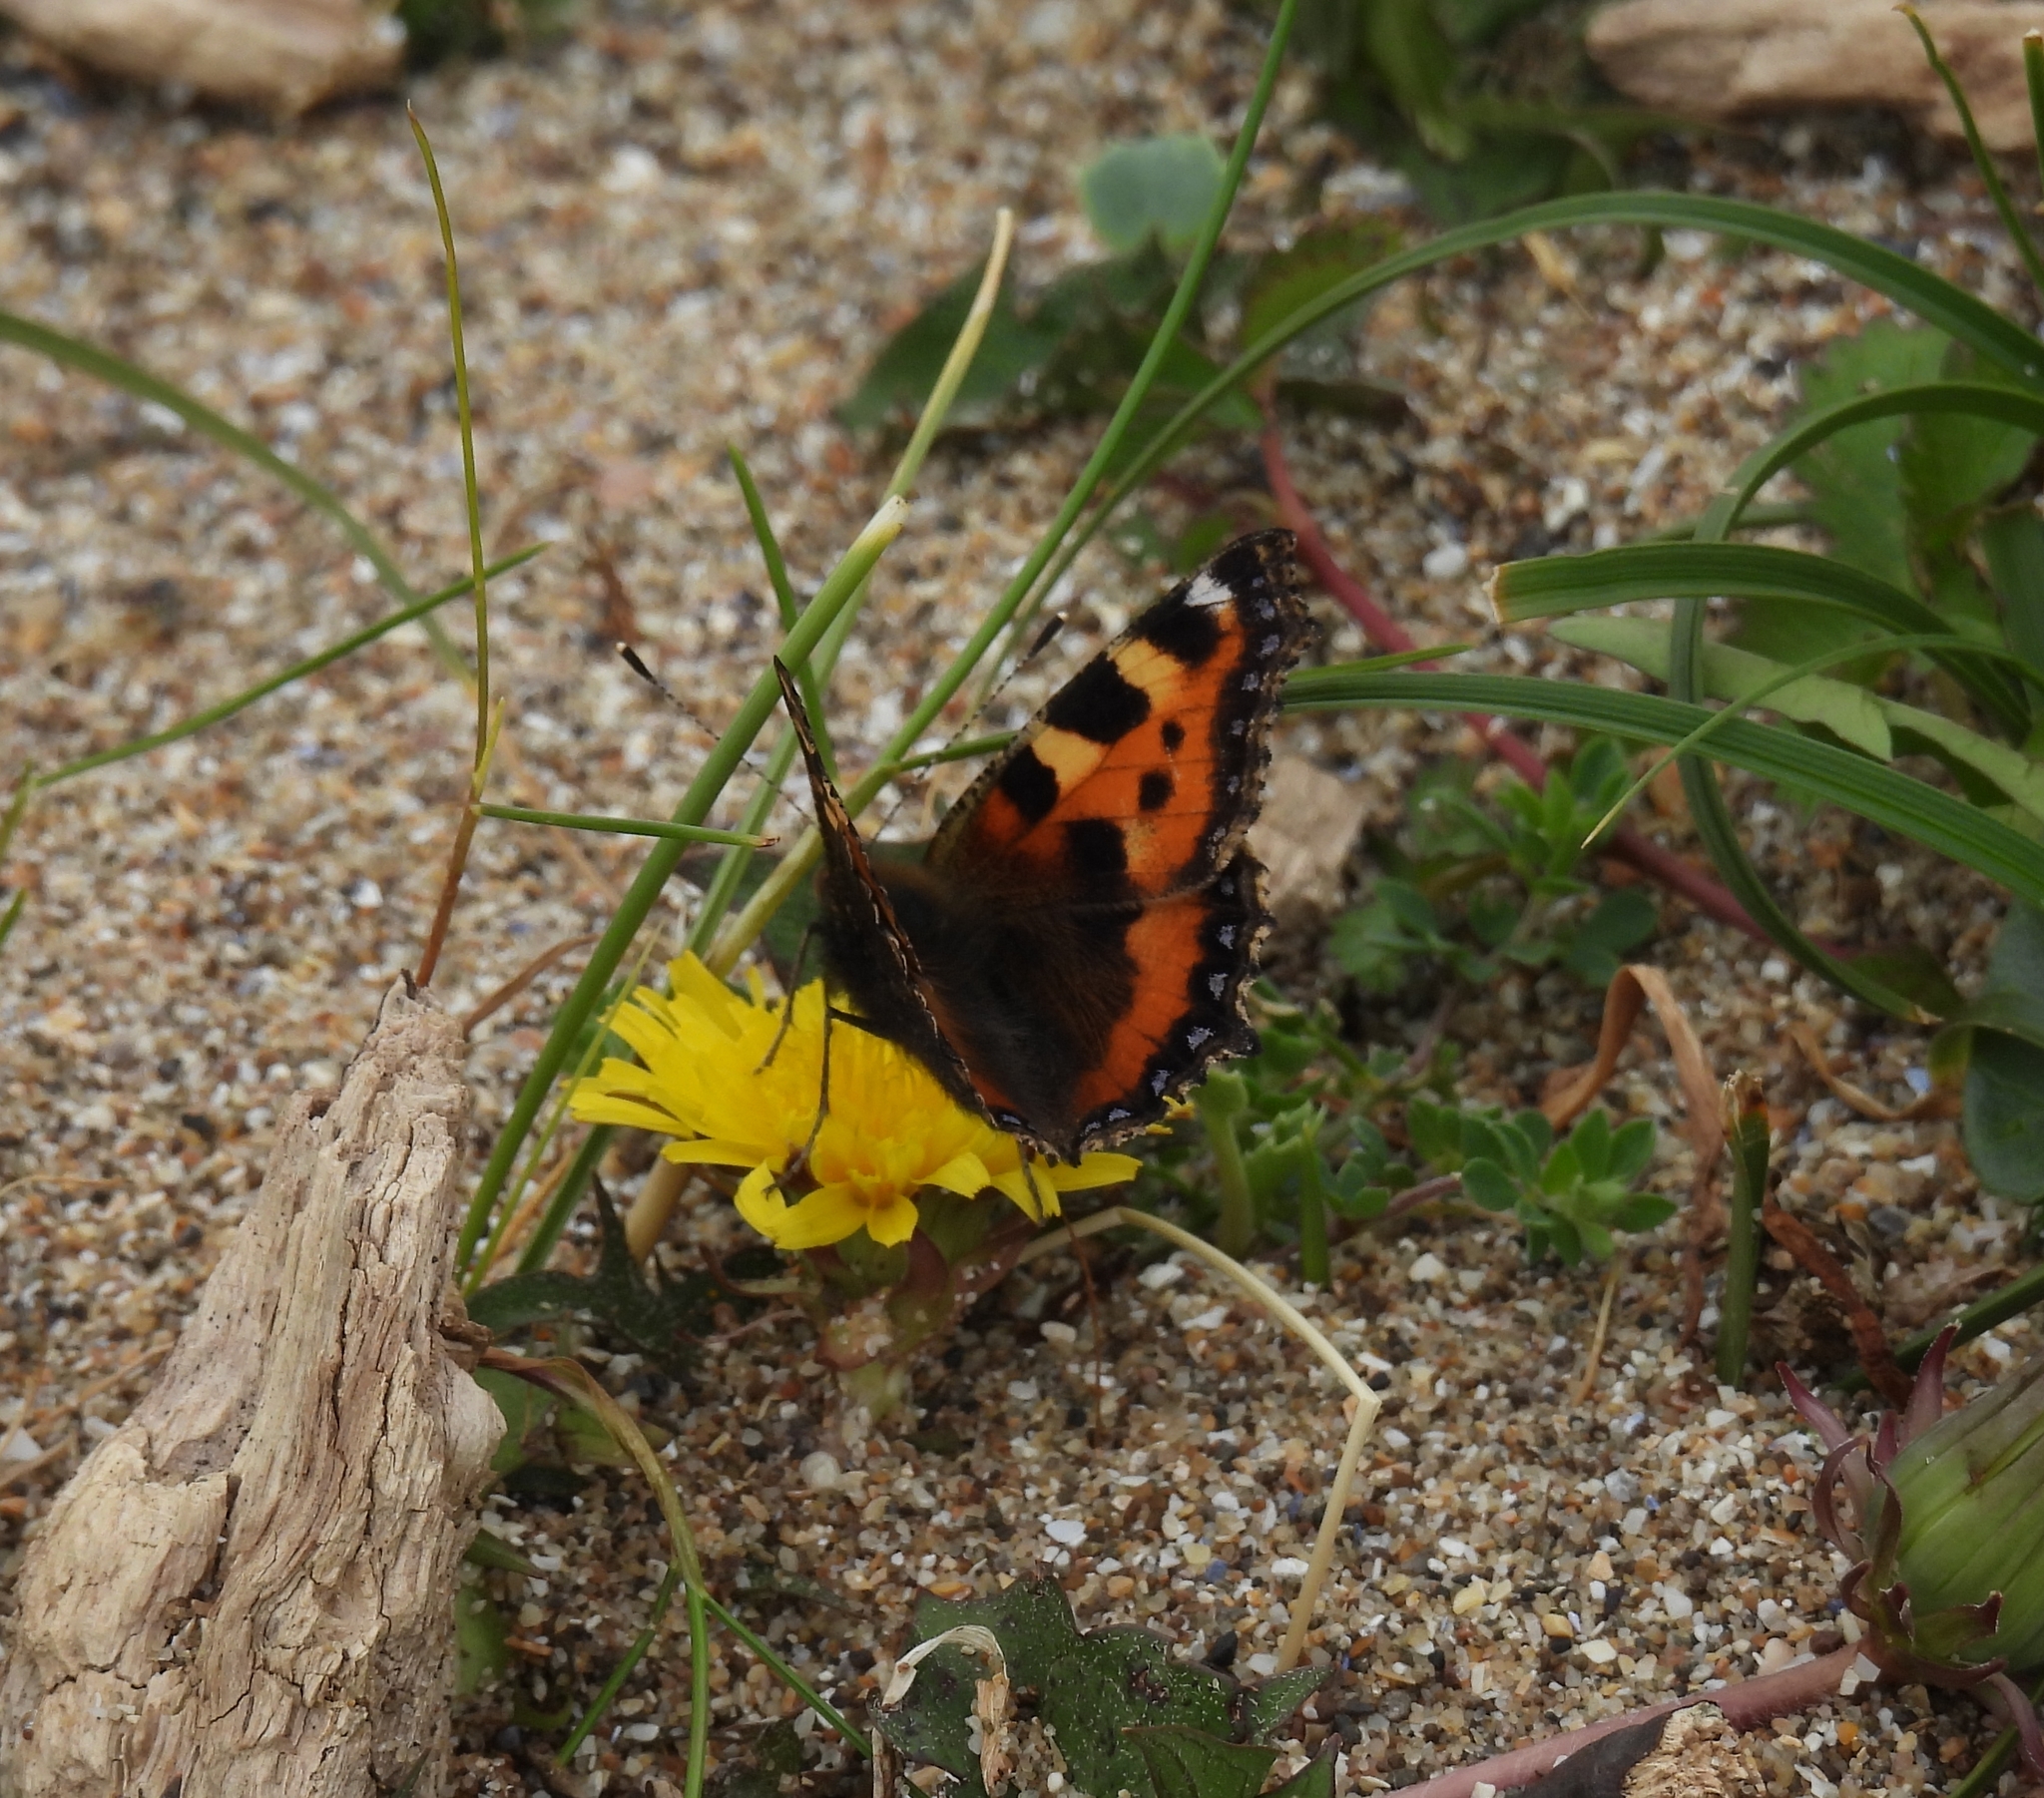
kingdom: Animalia
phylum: Arthropoda
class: Insecta
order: Lepidoptera
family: Nymphalidae
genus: Aglais
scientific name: Aglais urticae
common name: Small tortoiseshell
